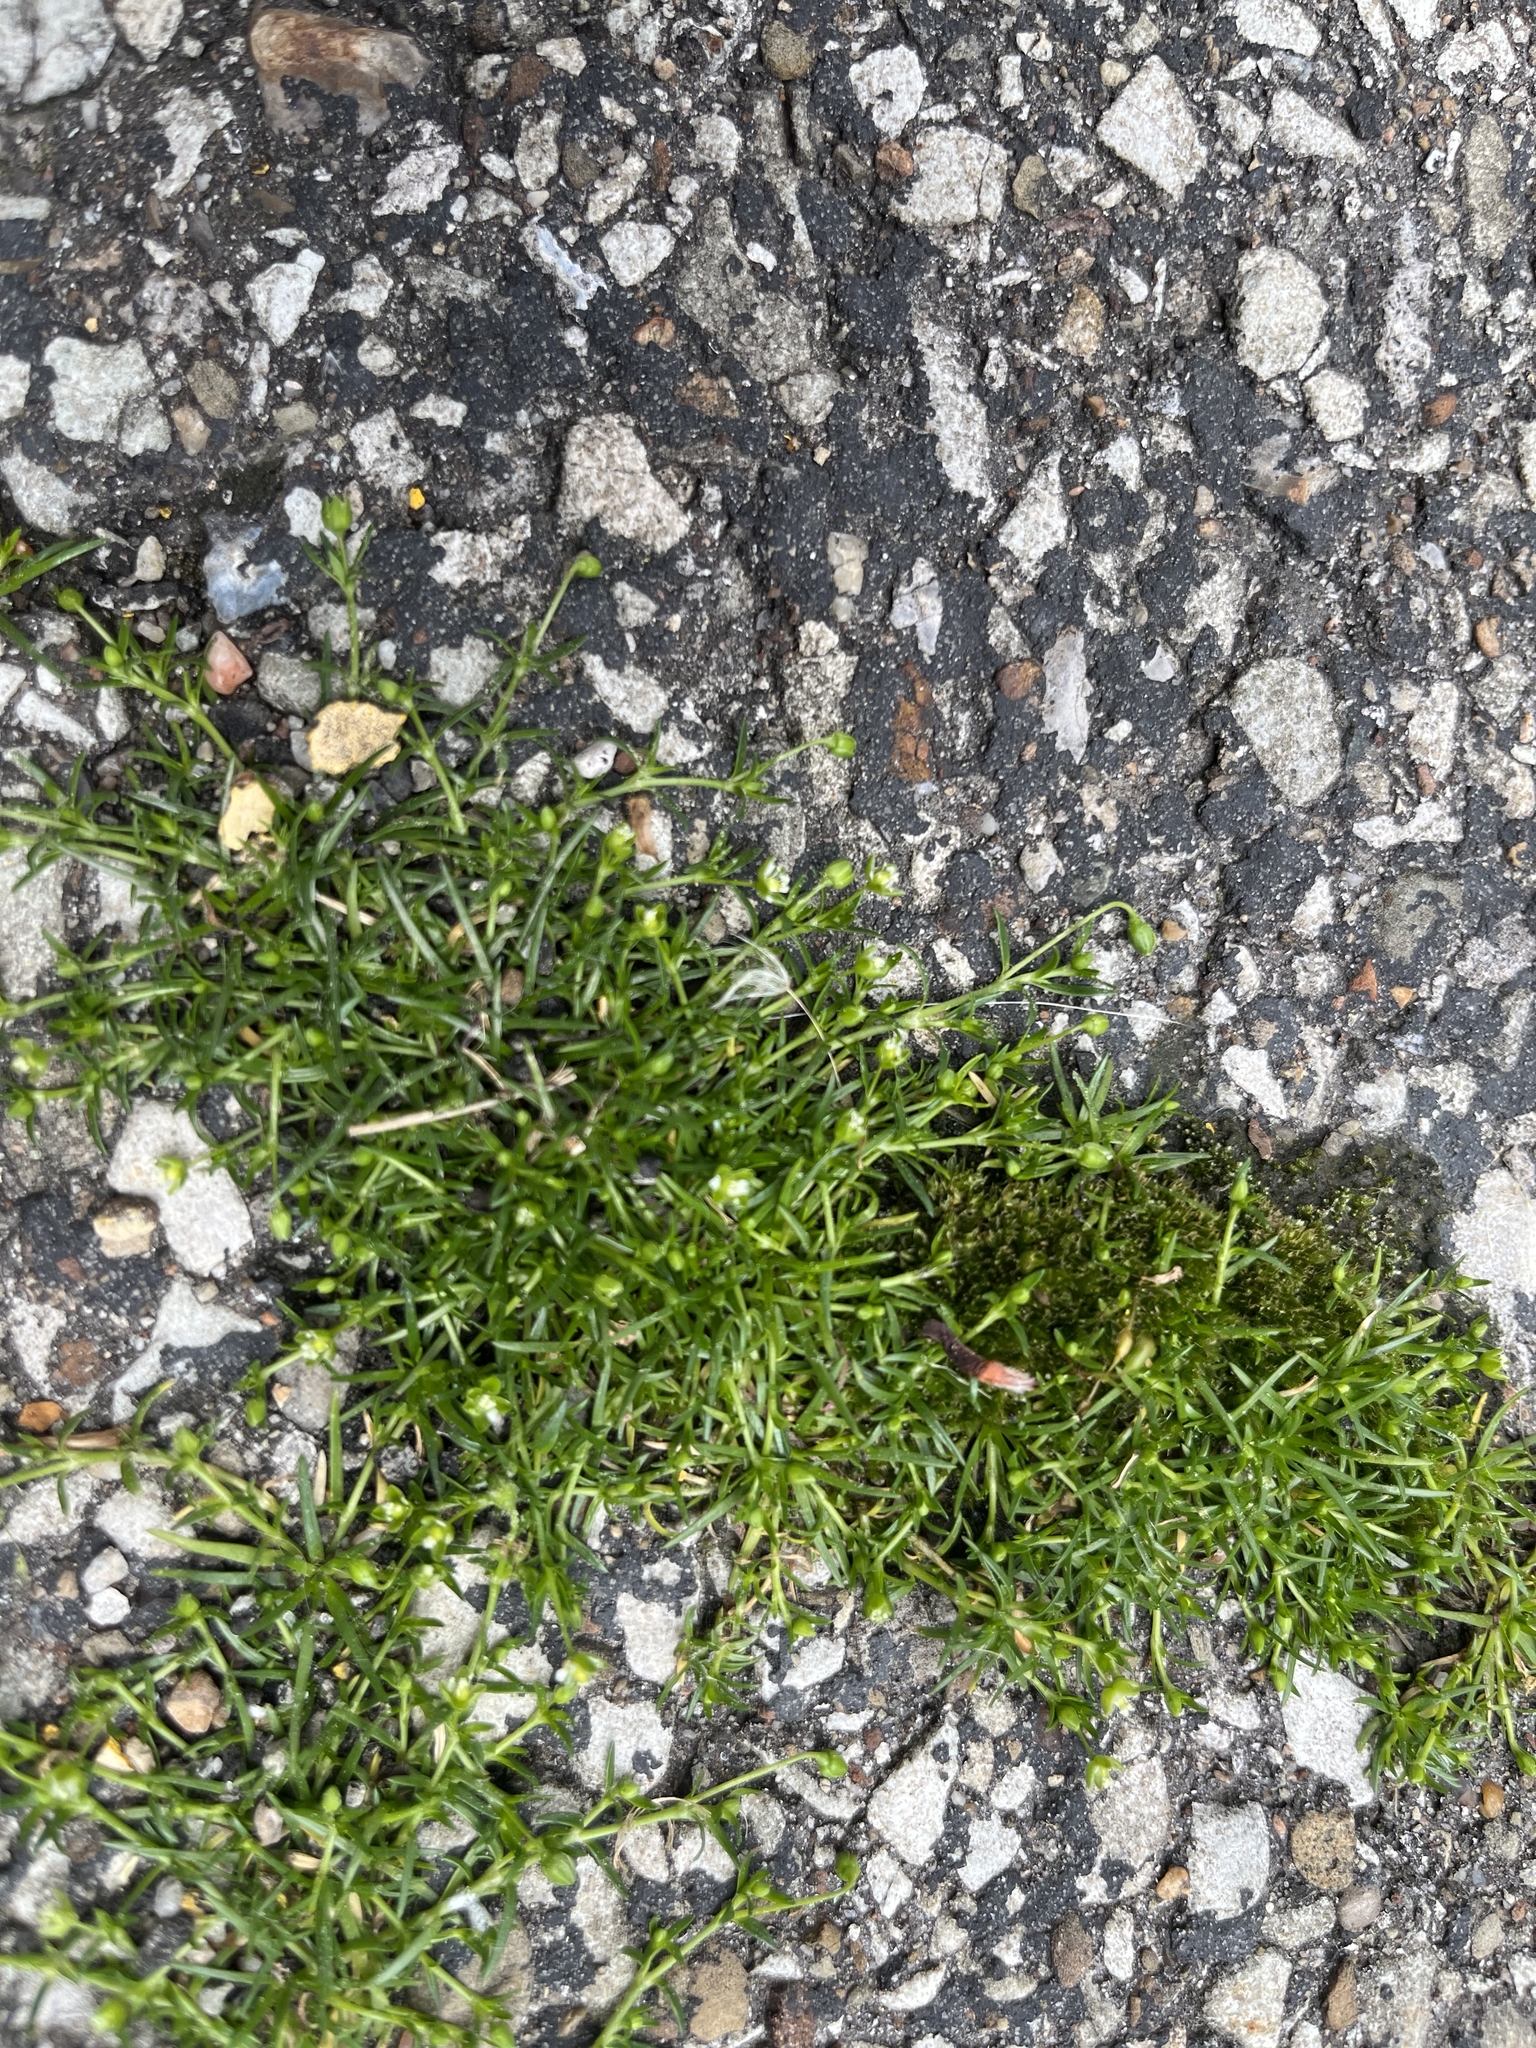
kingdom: Plantae
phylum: Tracheophyta
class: Magnoliopsida
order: Caryophyllales
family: Caryophyllaceae
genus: Sagina
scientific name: Sagina procumbens
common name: Procumbent pearlwort
